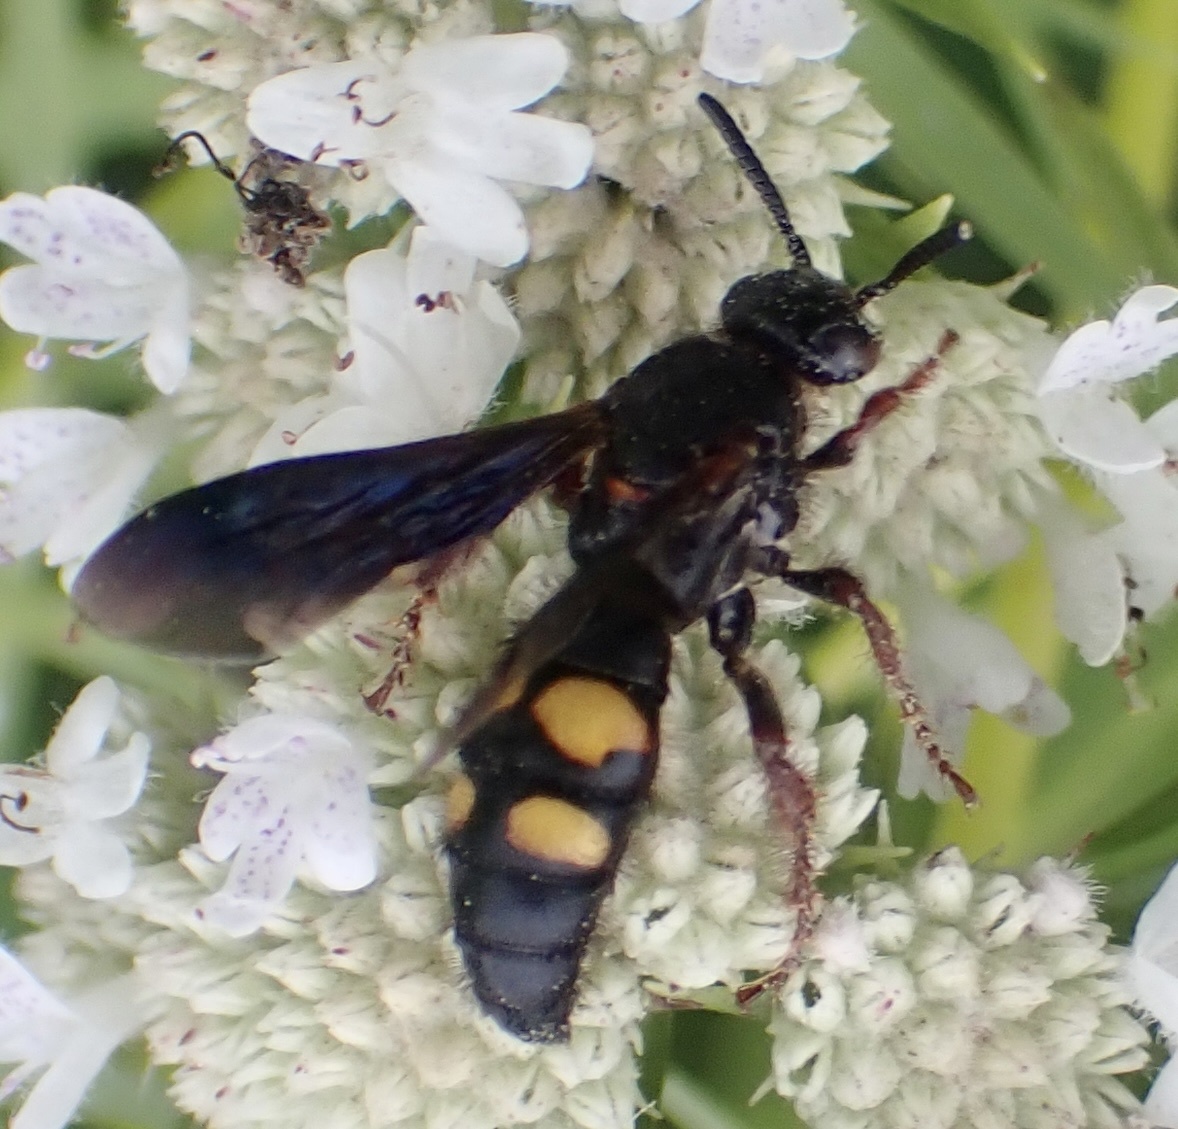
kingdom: Animalia
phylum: Arthropoda
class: Insecta
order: Hymenoptera
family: Scoliidae
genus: Scolia
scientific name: Scolia nobilitata
